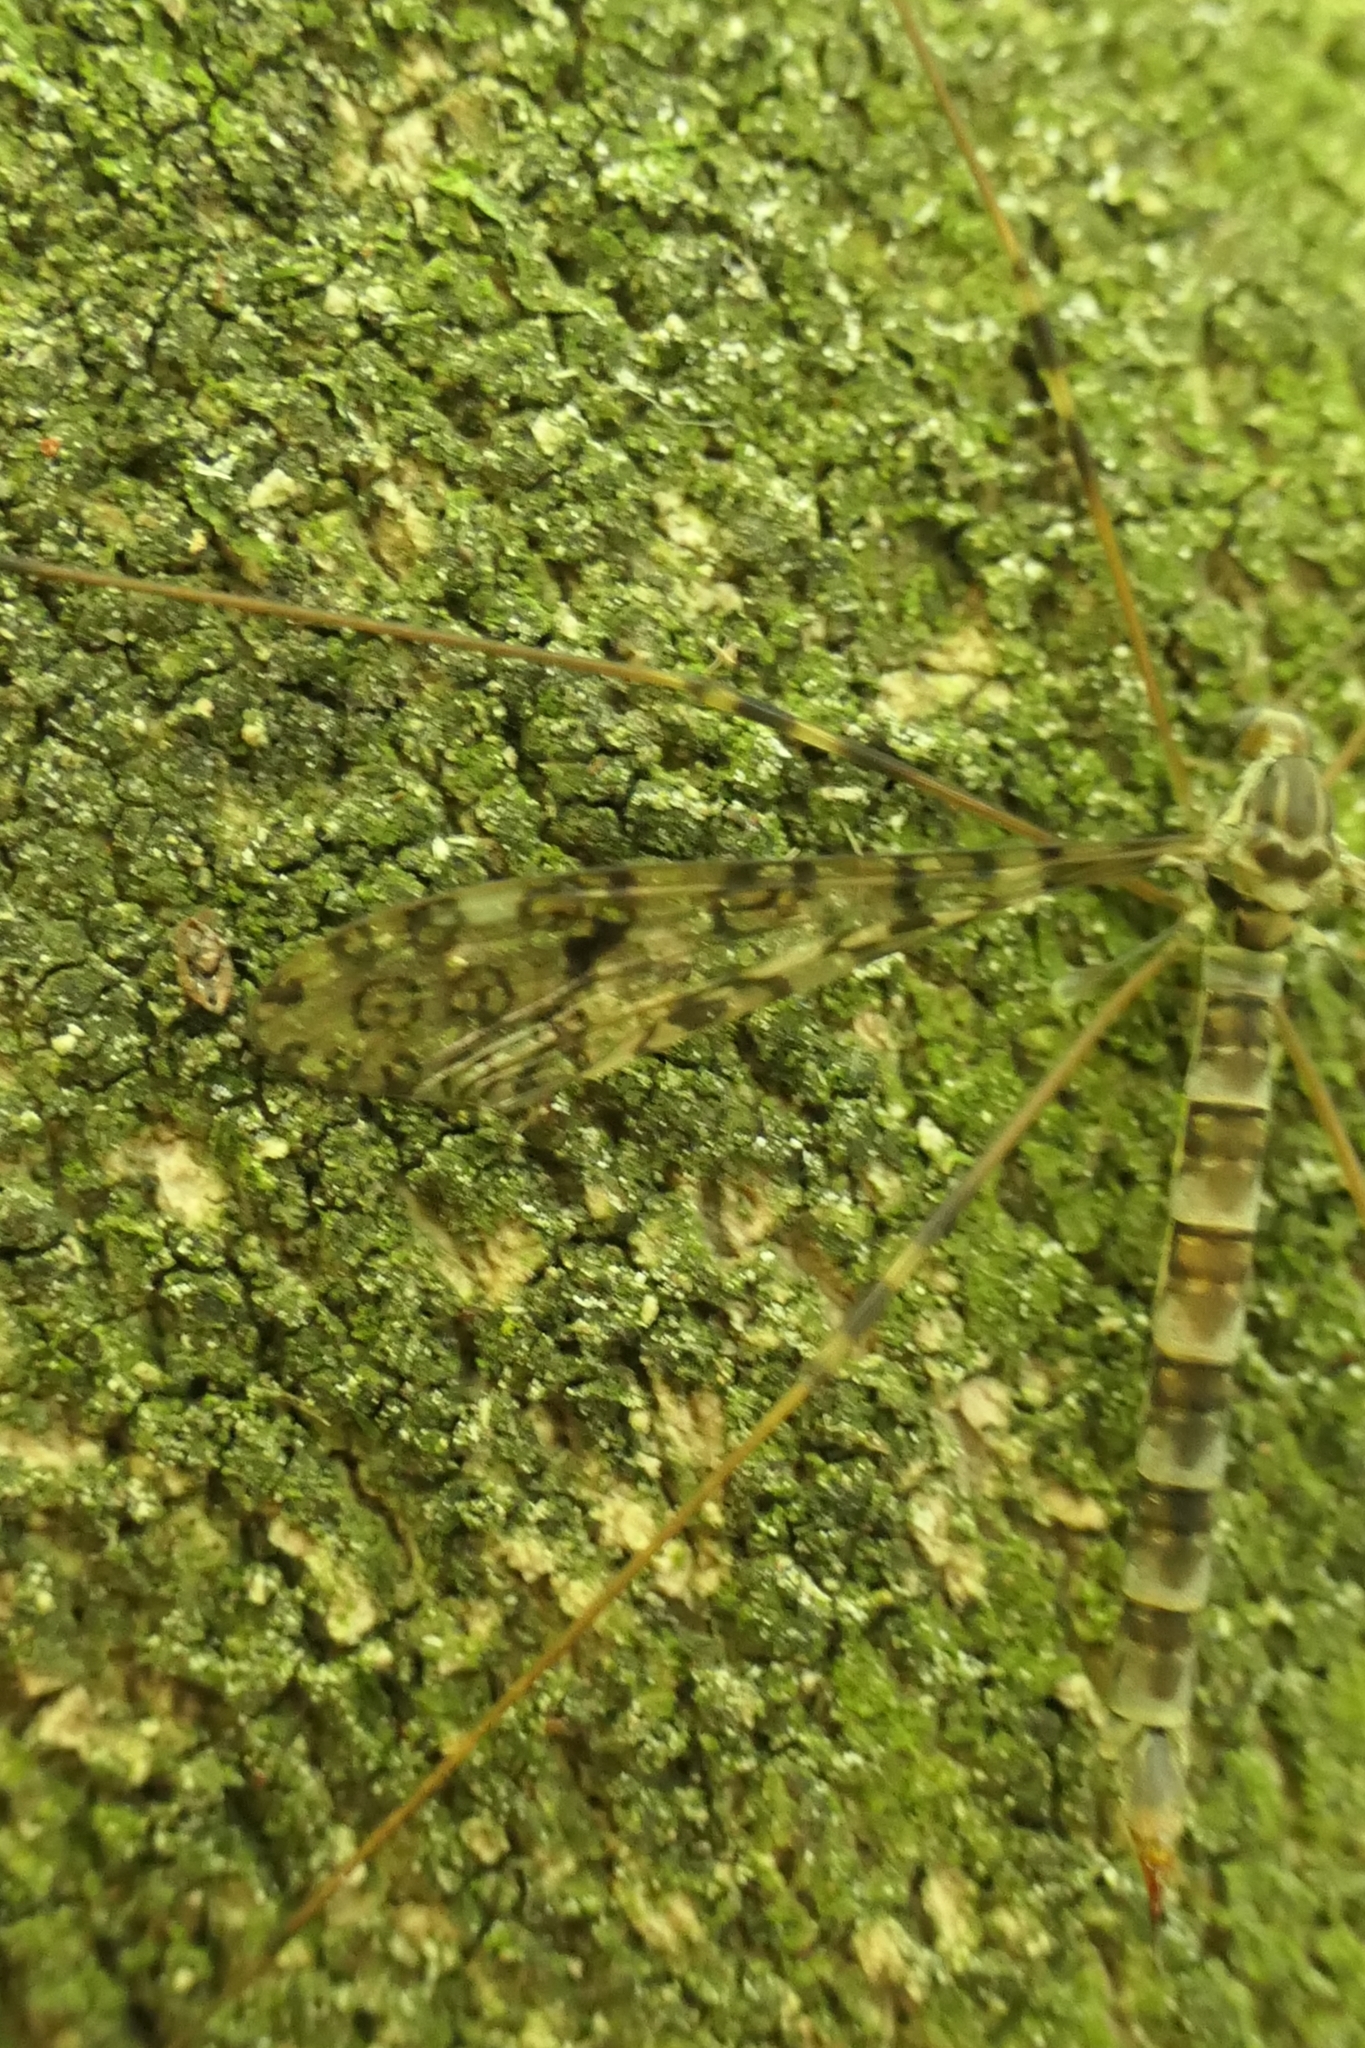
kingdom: Animalia
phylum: Arthropoda
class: Insecta
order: Diptera
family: Limoniidae
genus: Austrolimnophila
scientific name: Austrolimnophila argus
